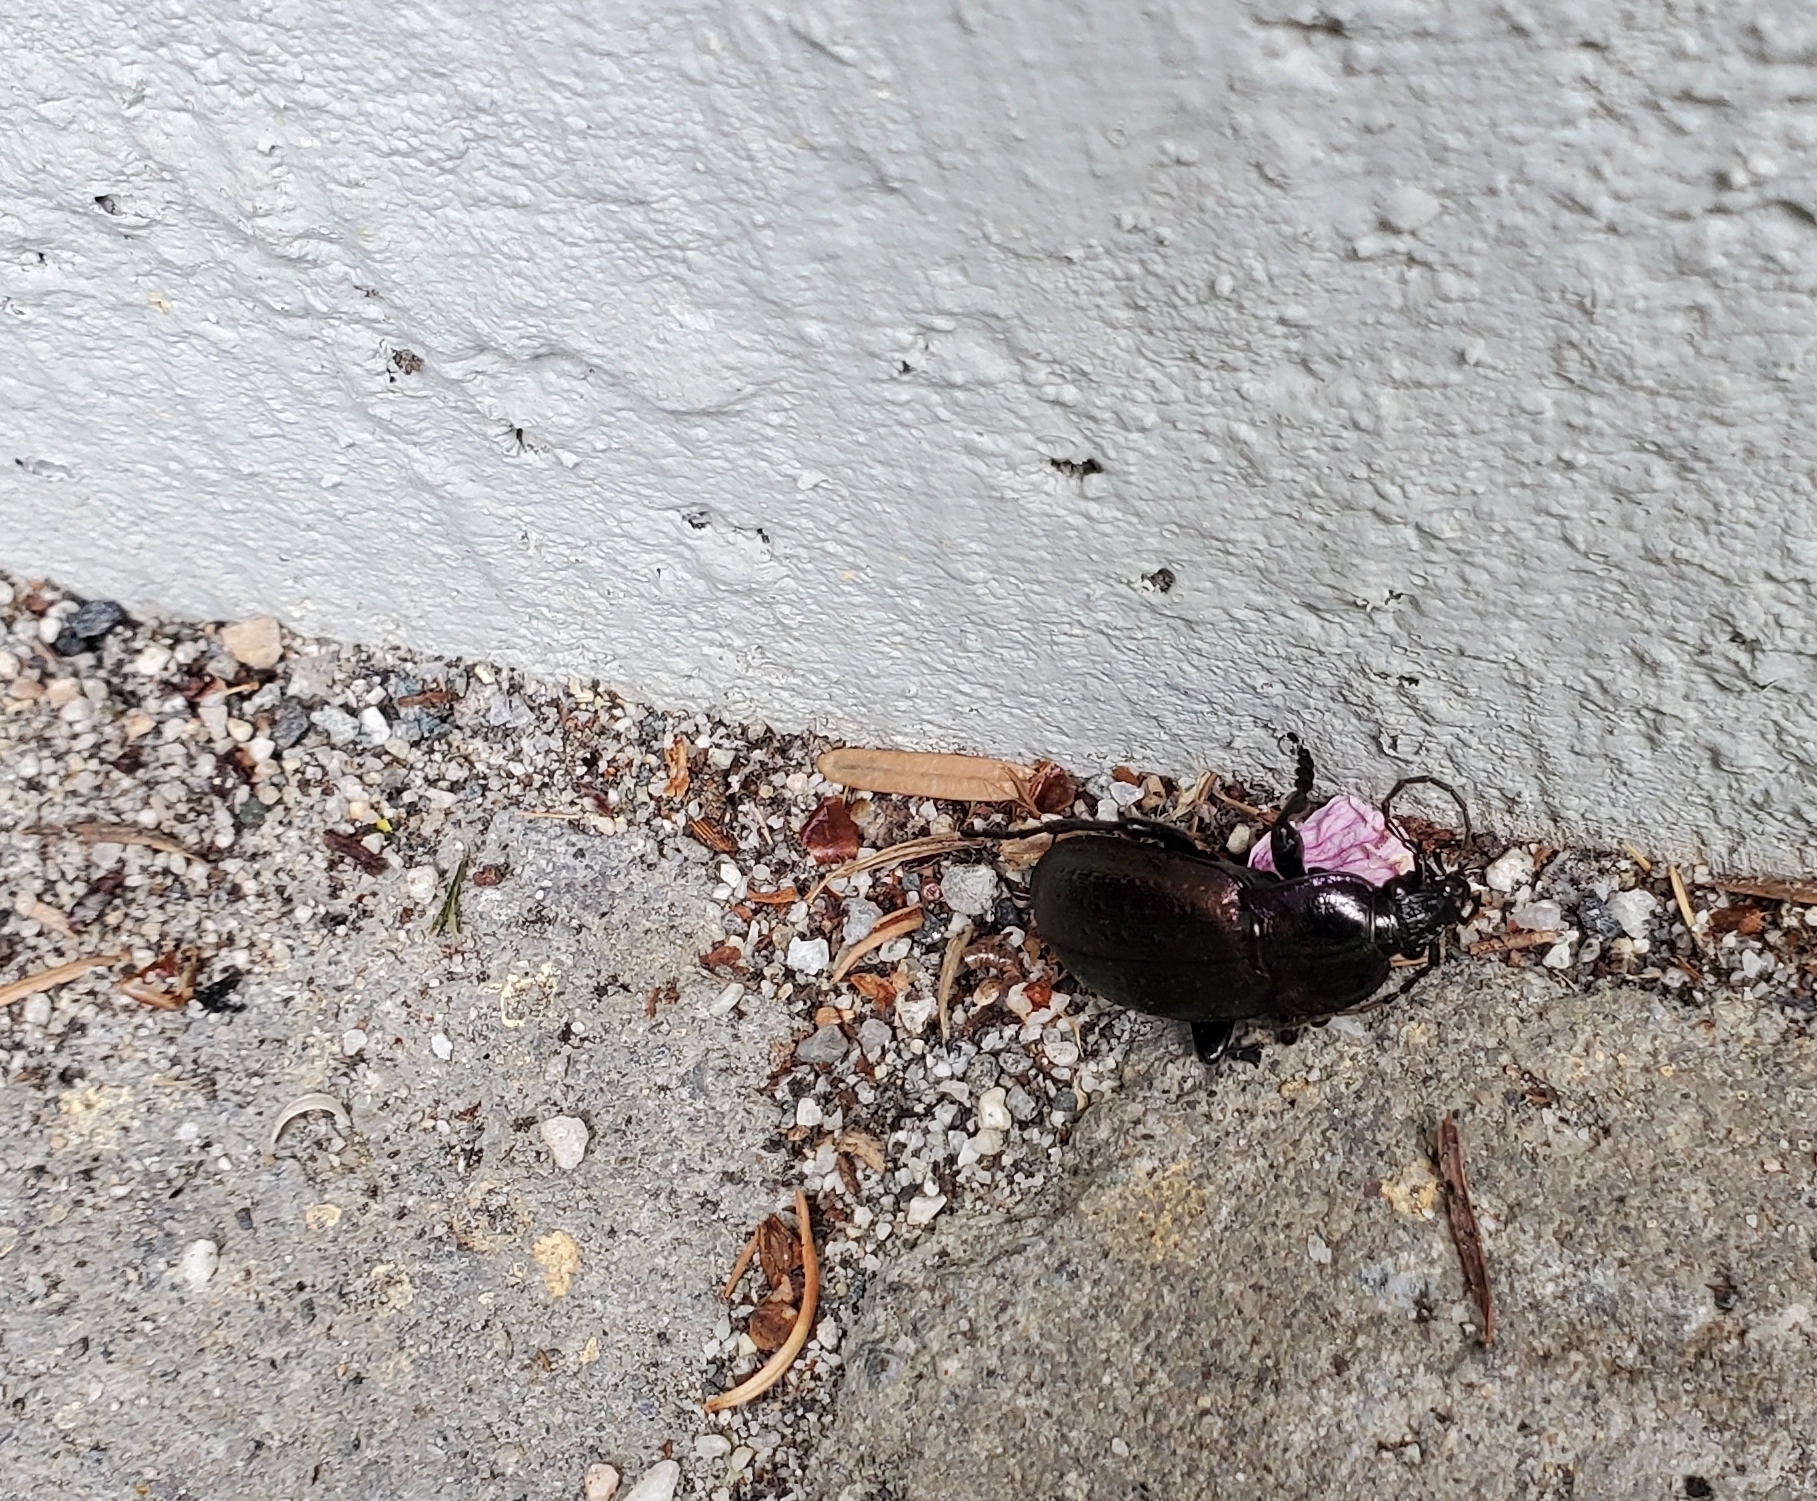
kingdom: Animalia
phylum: Arthropoda
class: Insecta
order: Coleoptera
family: Carabidae
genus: Carabus
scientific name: Carabus nemoralis
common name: European ground beetle
